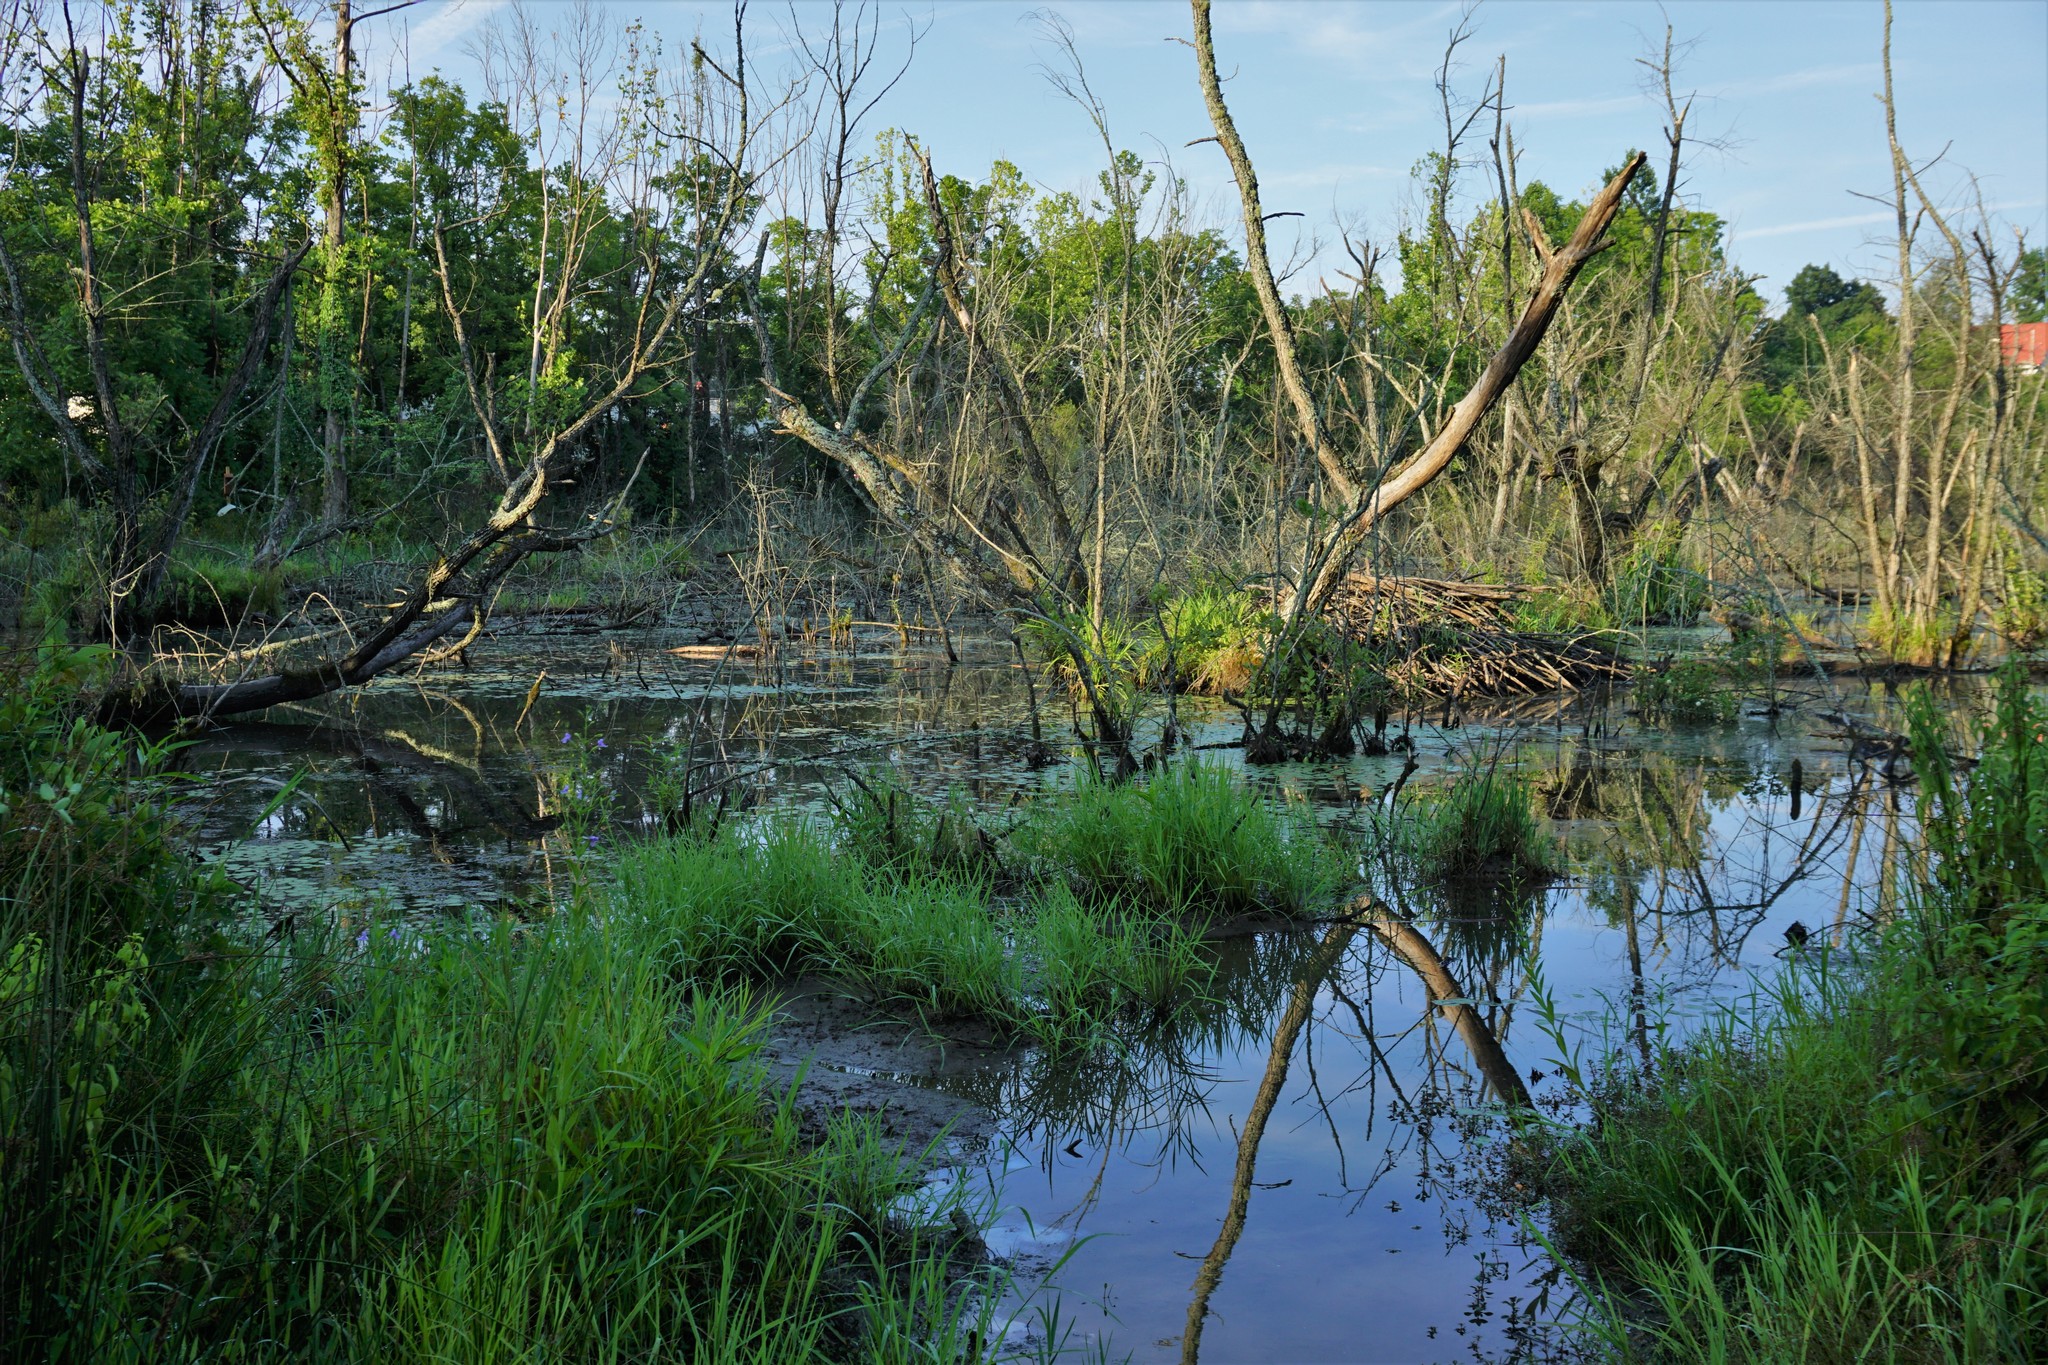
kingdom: Animalia
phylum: Chordata
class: Mammalia
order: Rodentia
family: Castoridae
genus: Castor
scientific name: Castor canadensis
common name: American beaver
